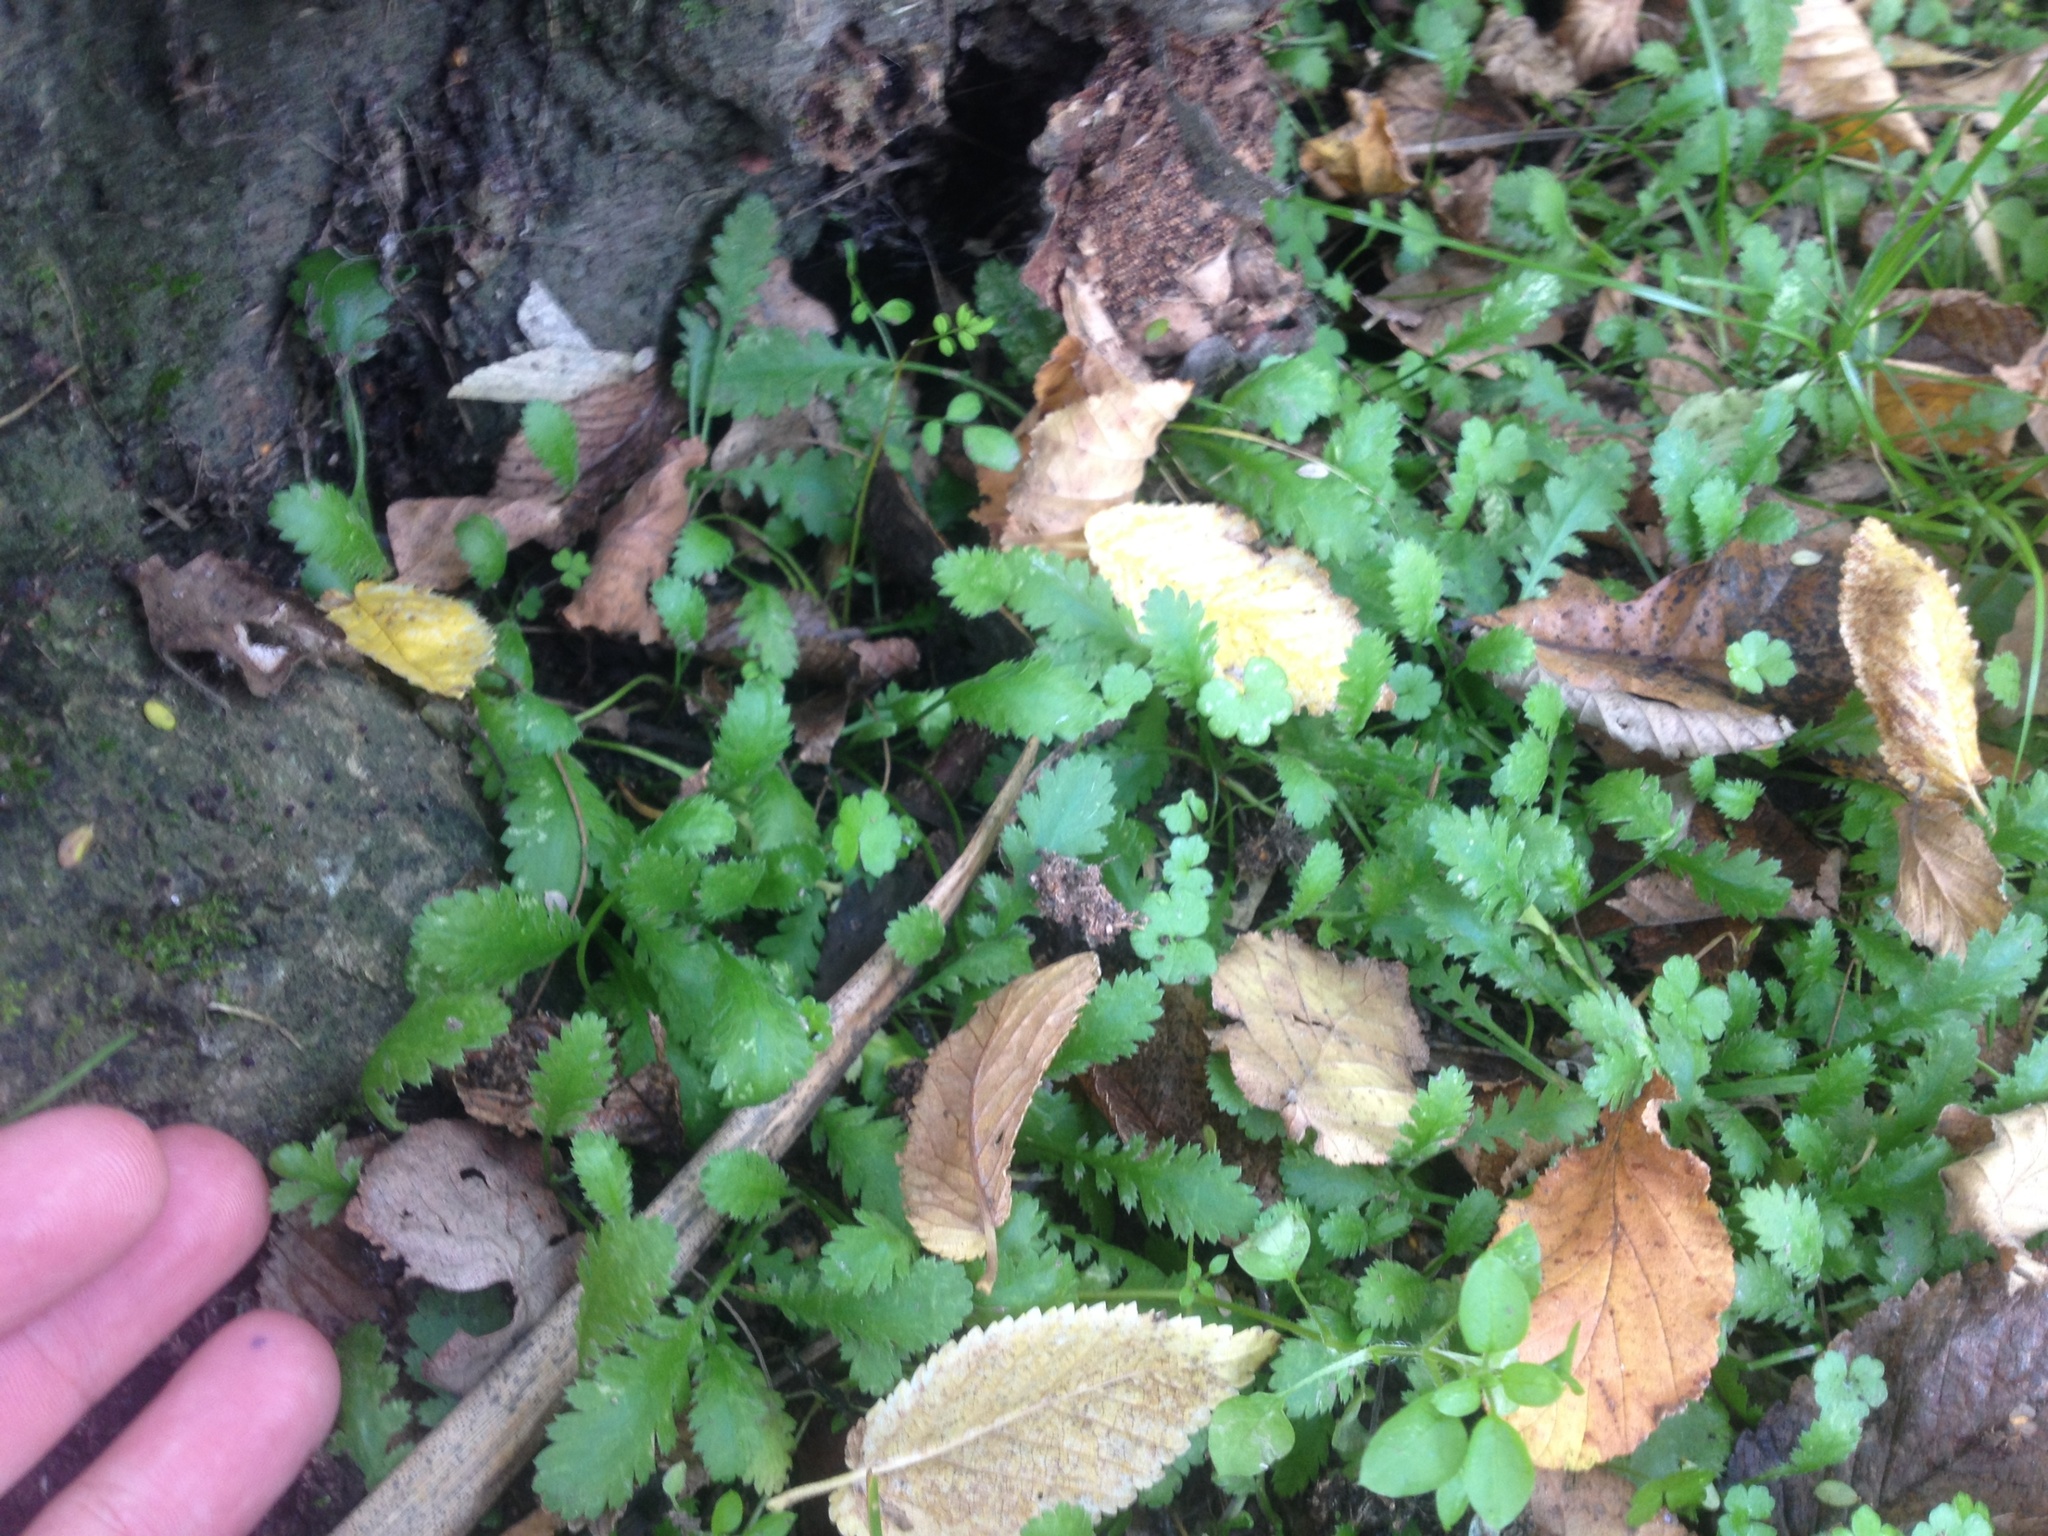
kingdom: Plantae
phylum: Tracheophyta
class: Magnoliopsida
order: Asterales
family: Asteraceae
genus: Leptinella
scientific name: Leptinella squalida
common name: New zealand brass-buttons
